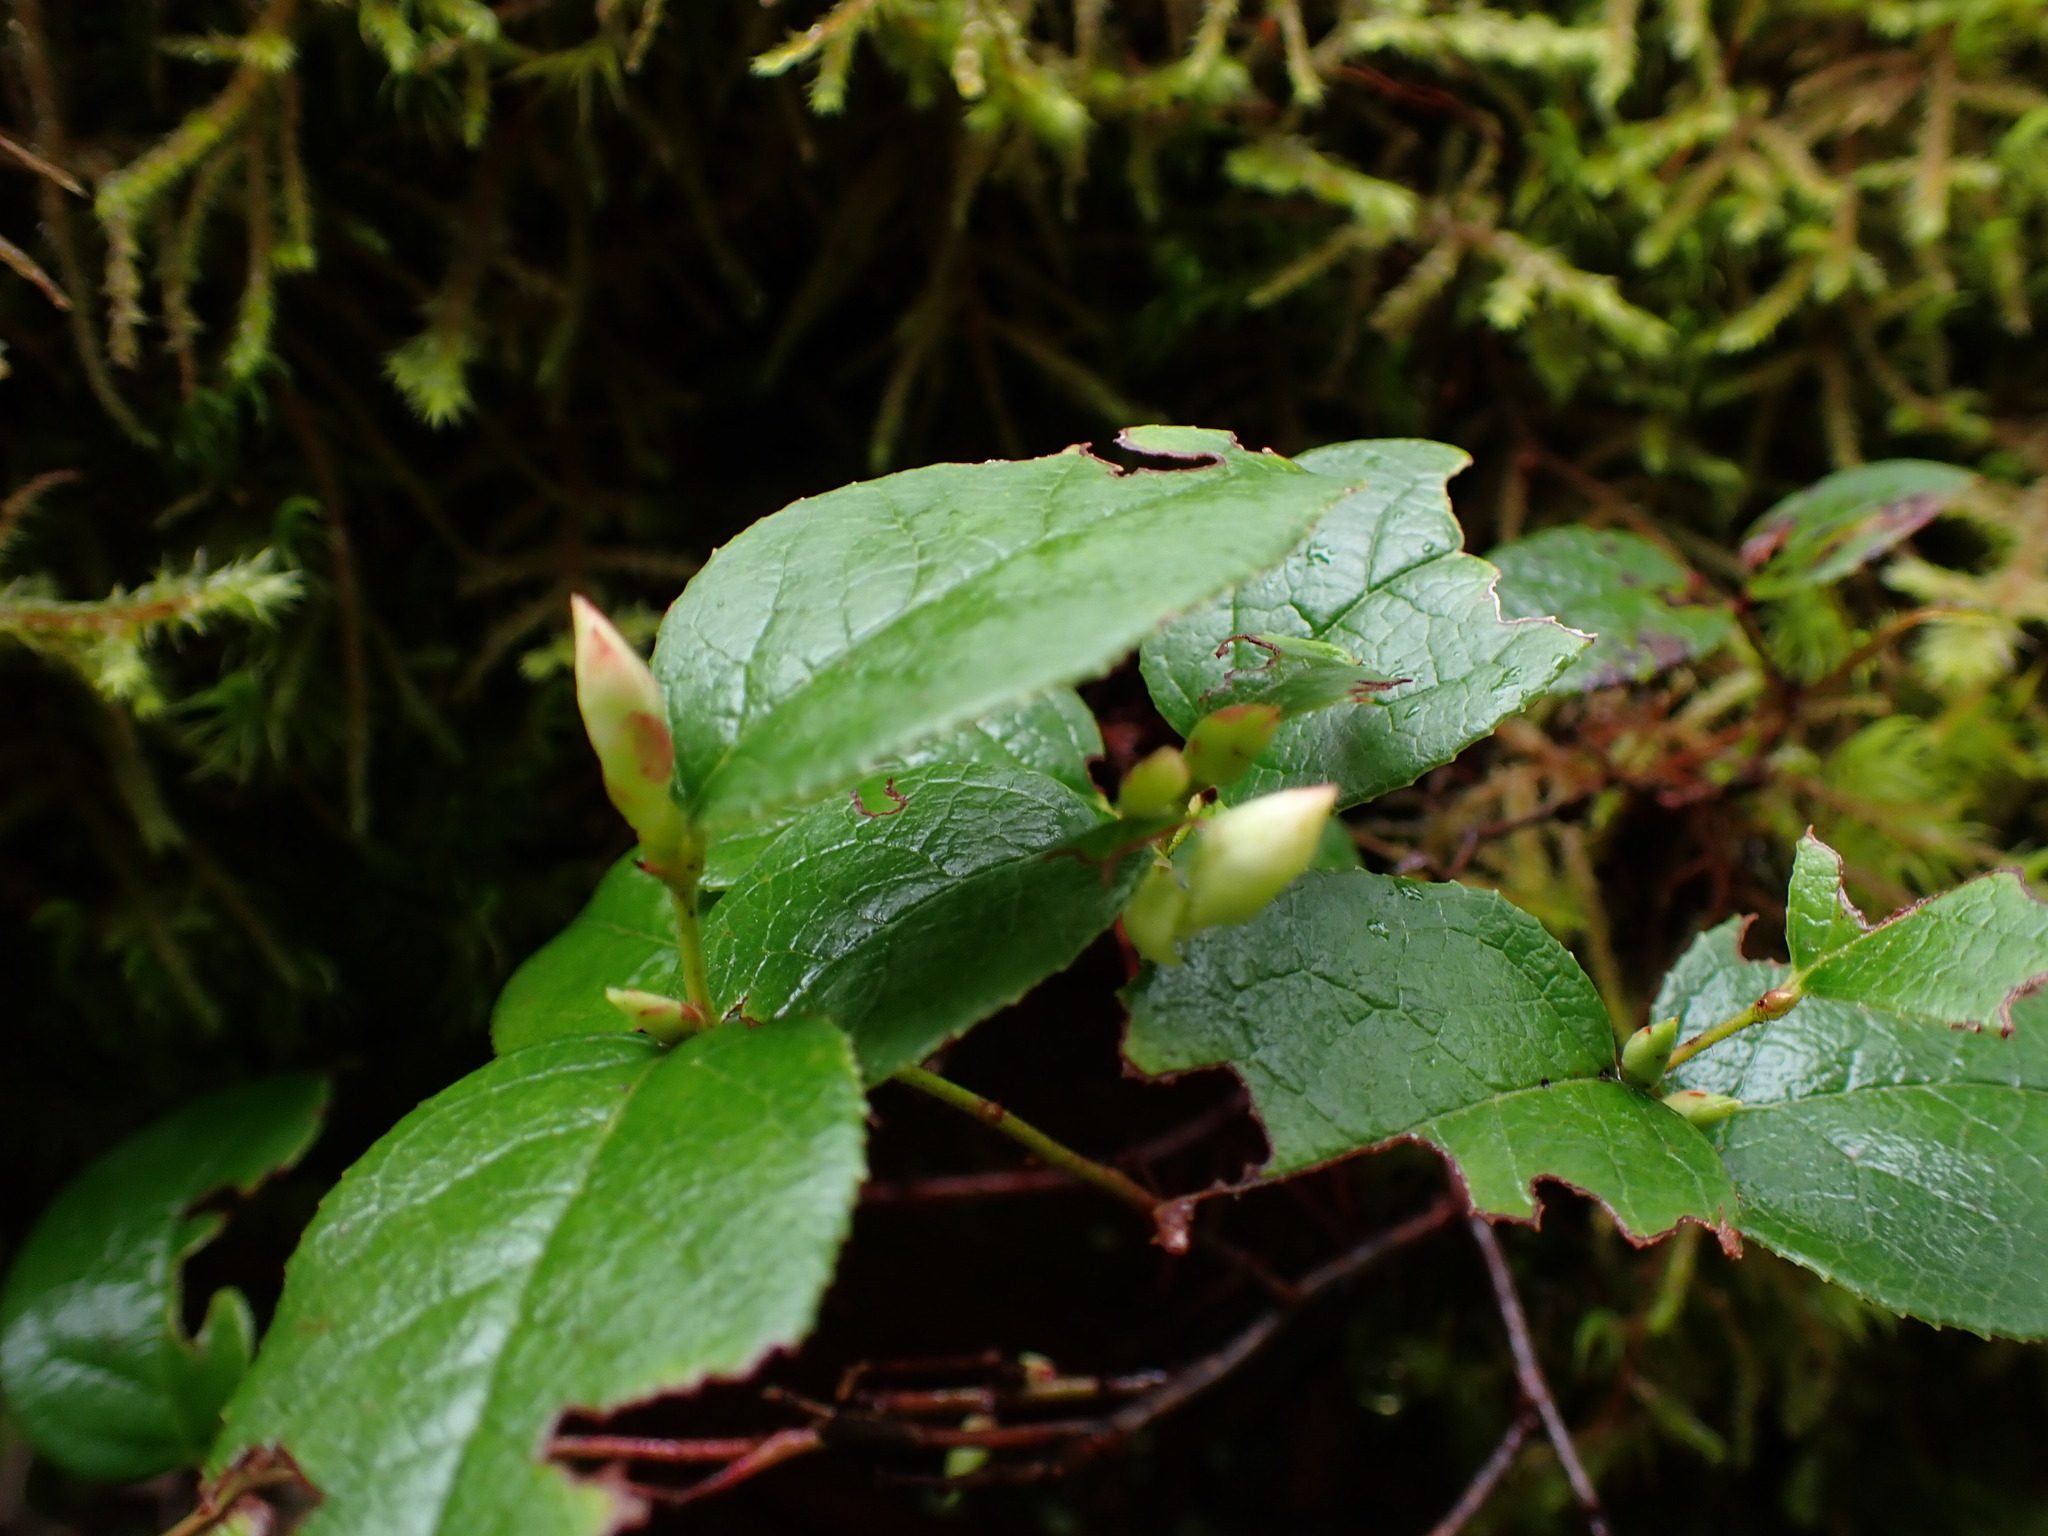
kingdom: Plantae
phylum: Tracheophyta
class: Magnoliopsida
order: Ericales
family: Ericaceae
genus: Gaultheria
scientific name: Gaultheria shallon
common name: Shallon
